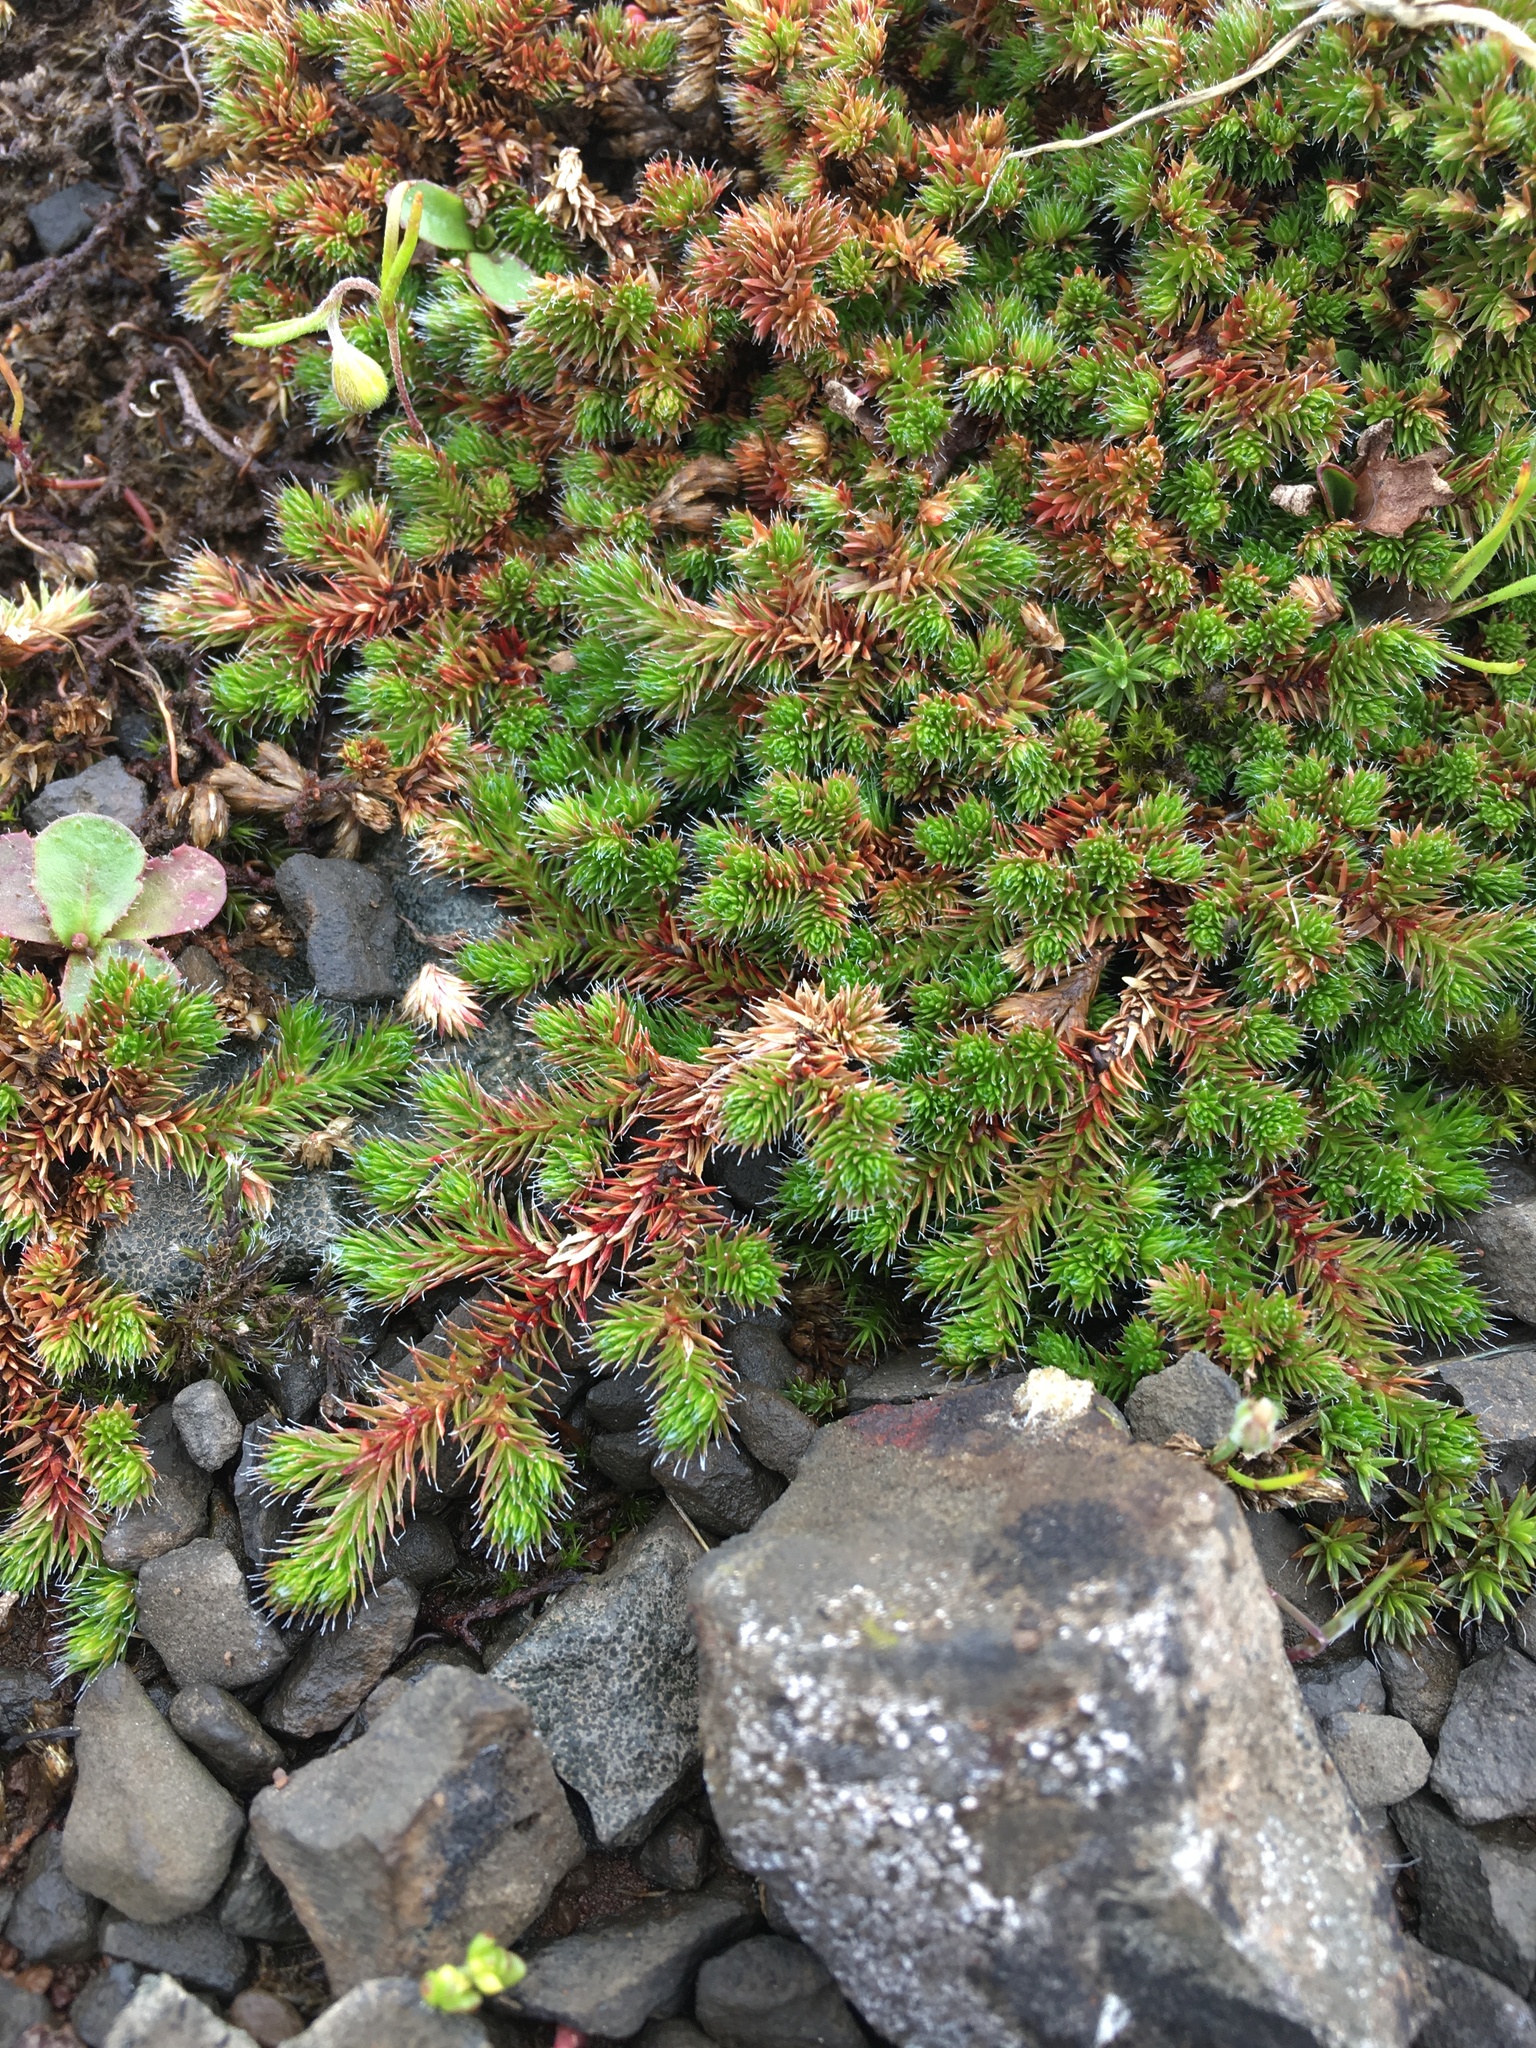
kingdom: Plantae
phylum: Tracheophyta
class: Lycopodiopsida
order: Selaginellales
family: Selaginellaceae
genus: Selaginella
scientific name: Selaginella hansenii
